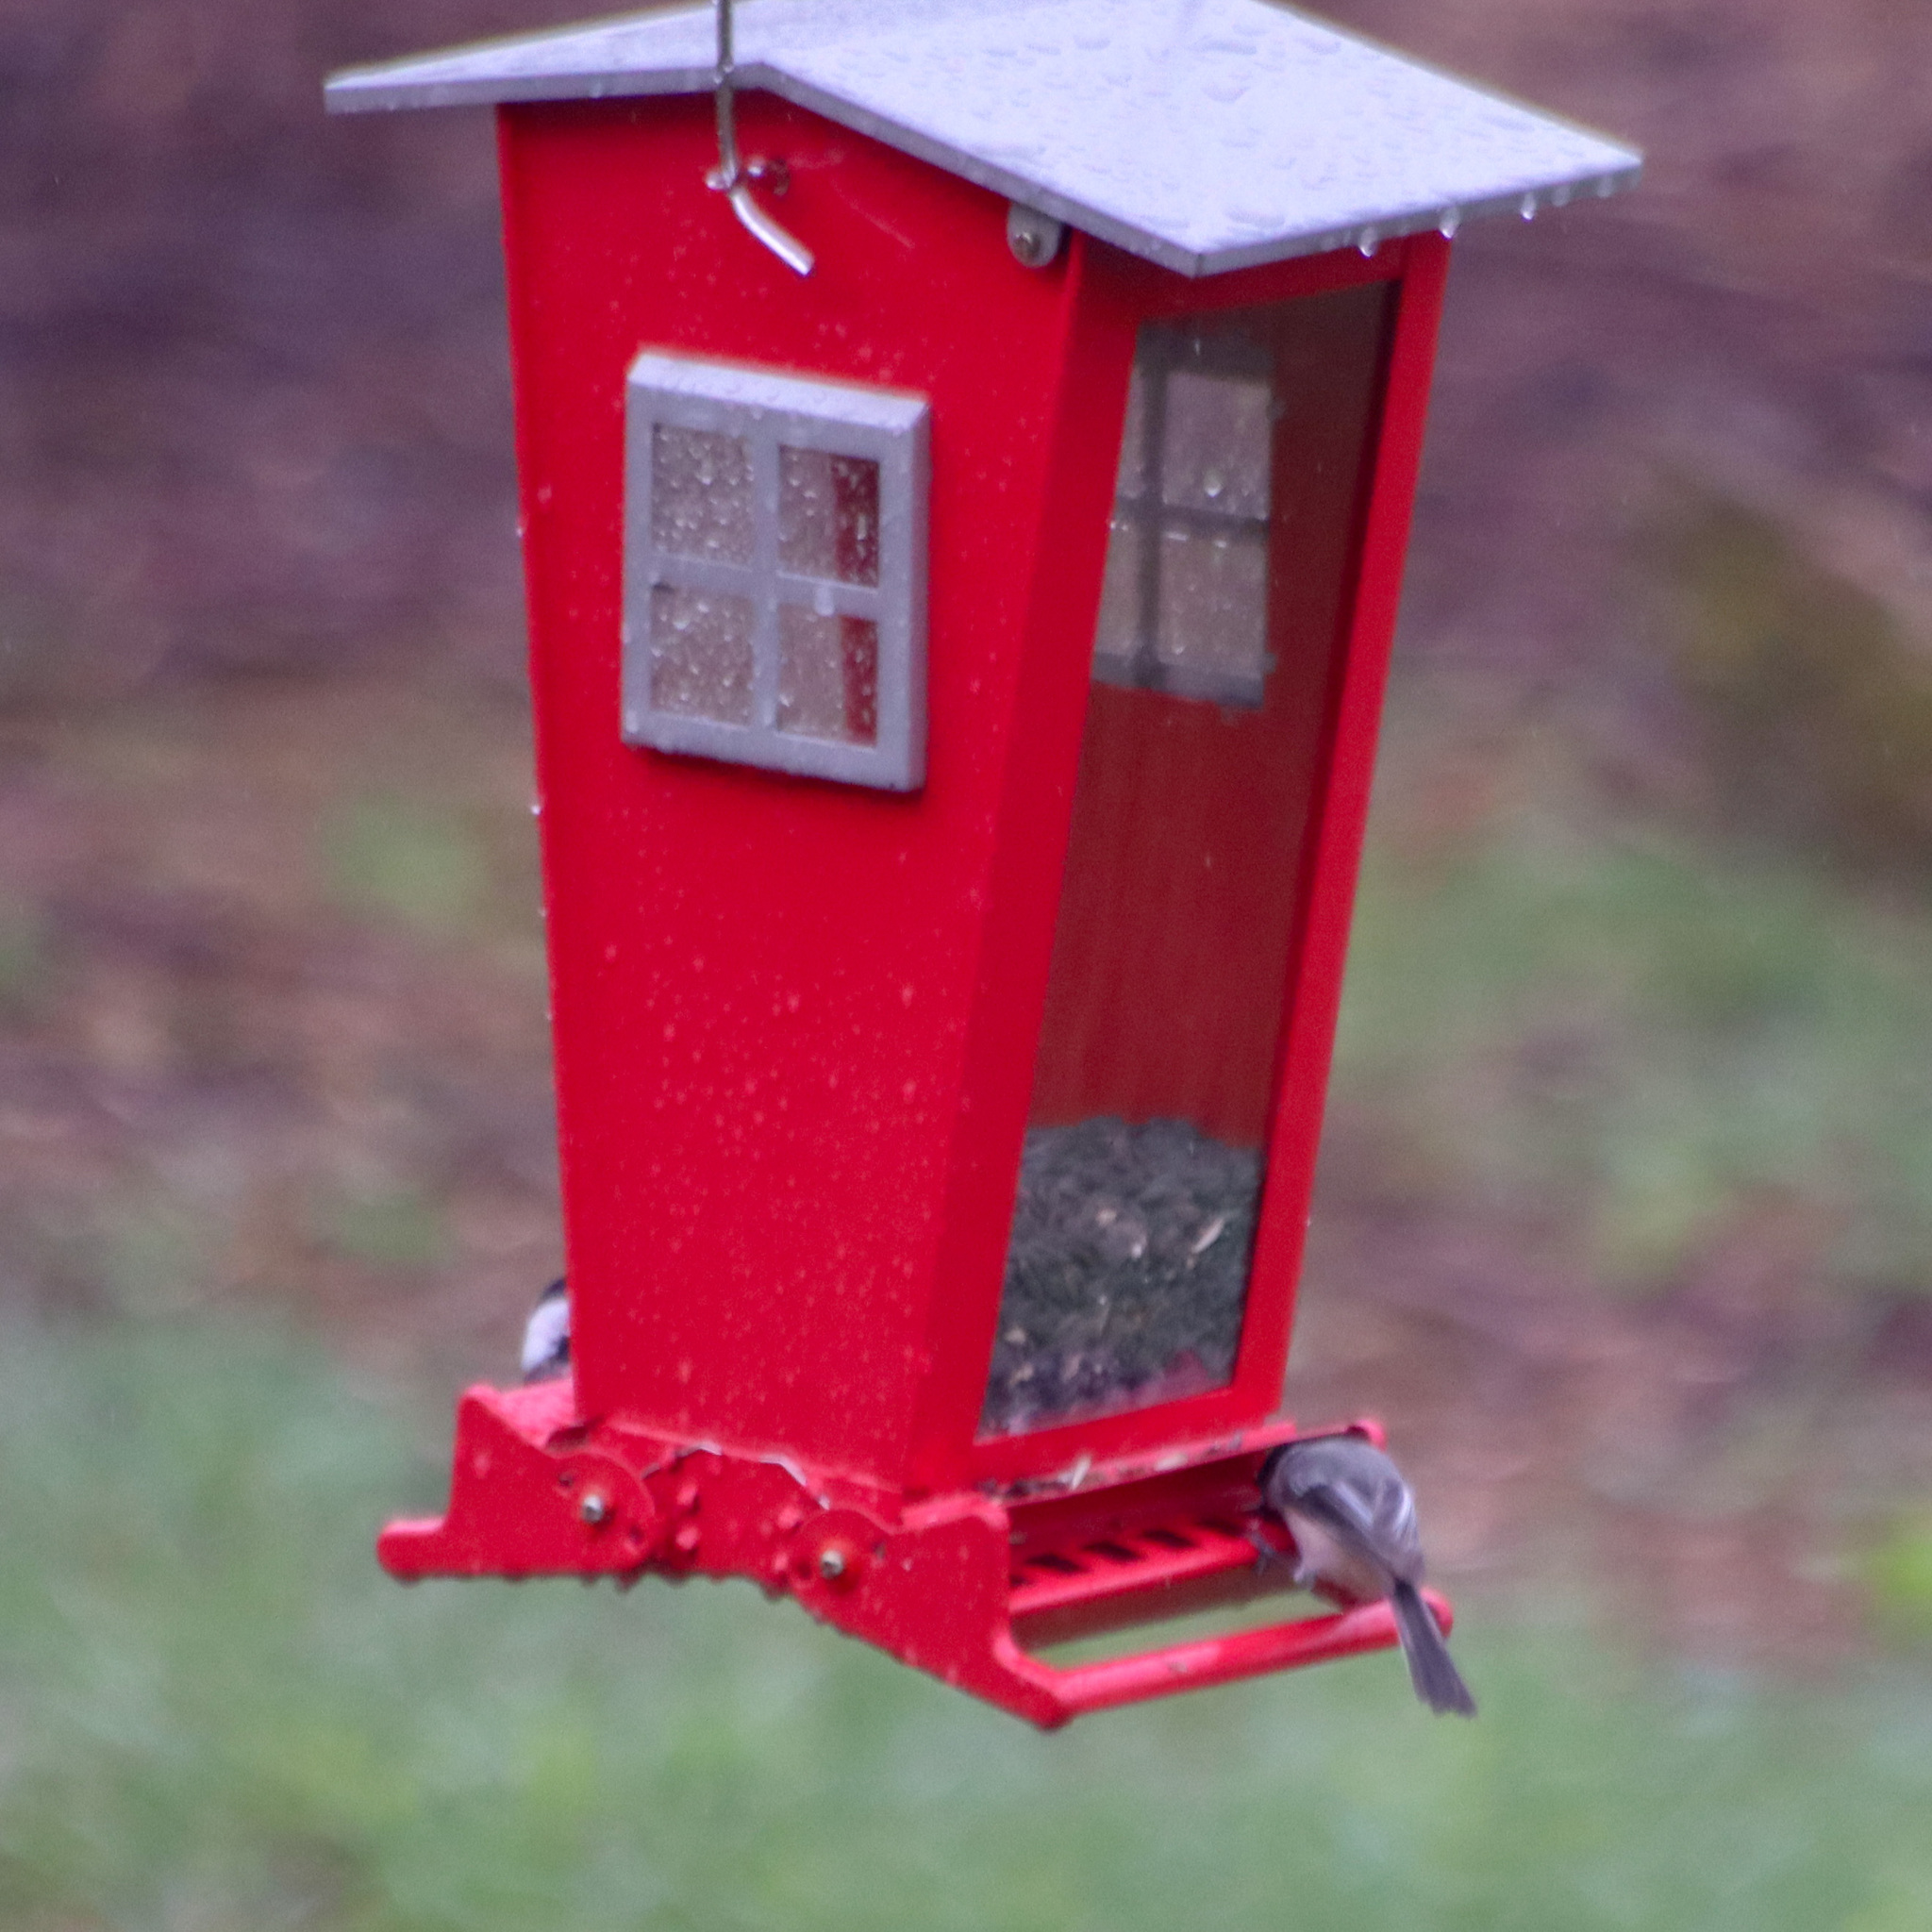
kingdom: Animalia
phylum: Chordata
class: Aves
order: Passeriformes
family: Paridae
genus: Poecile
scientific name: Poecile atricapillus
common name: Black-capped chickadee
